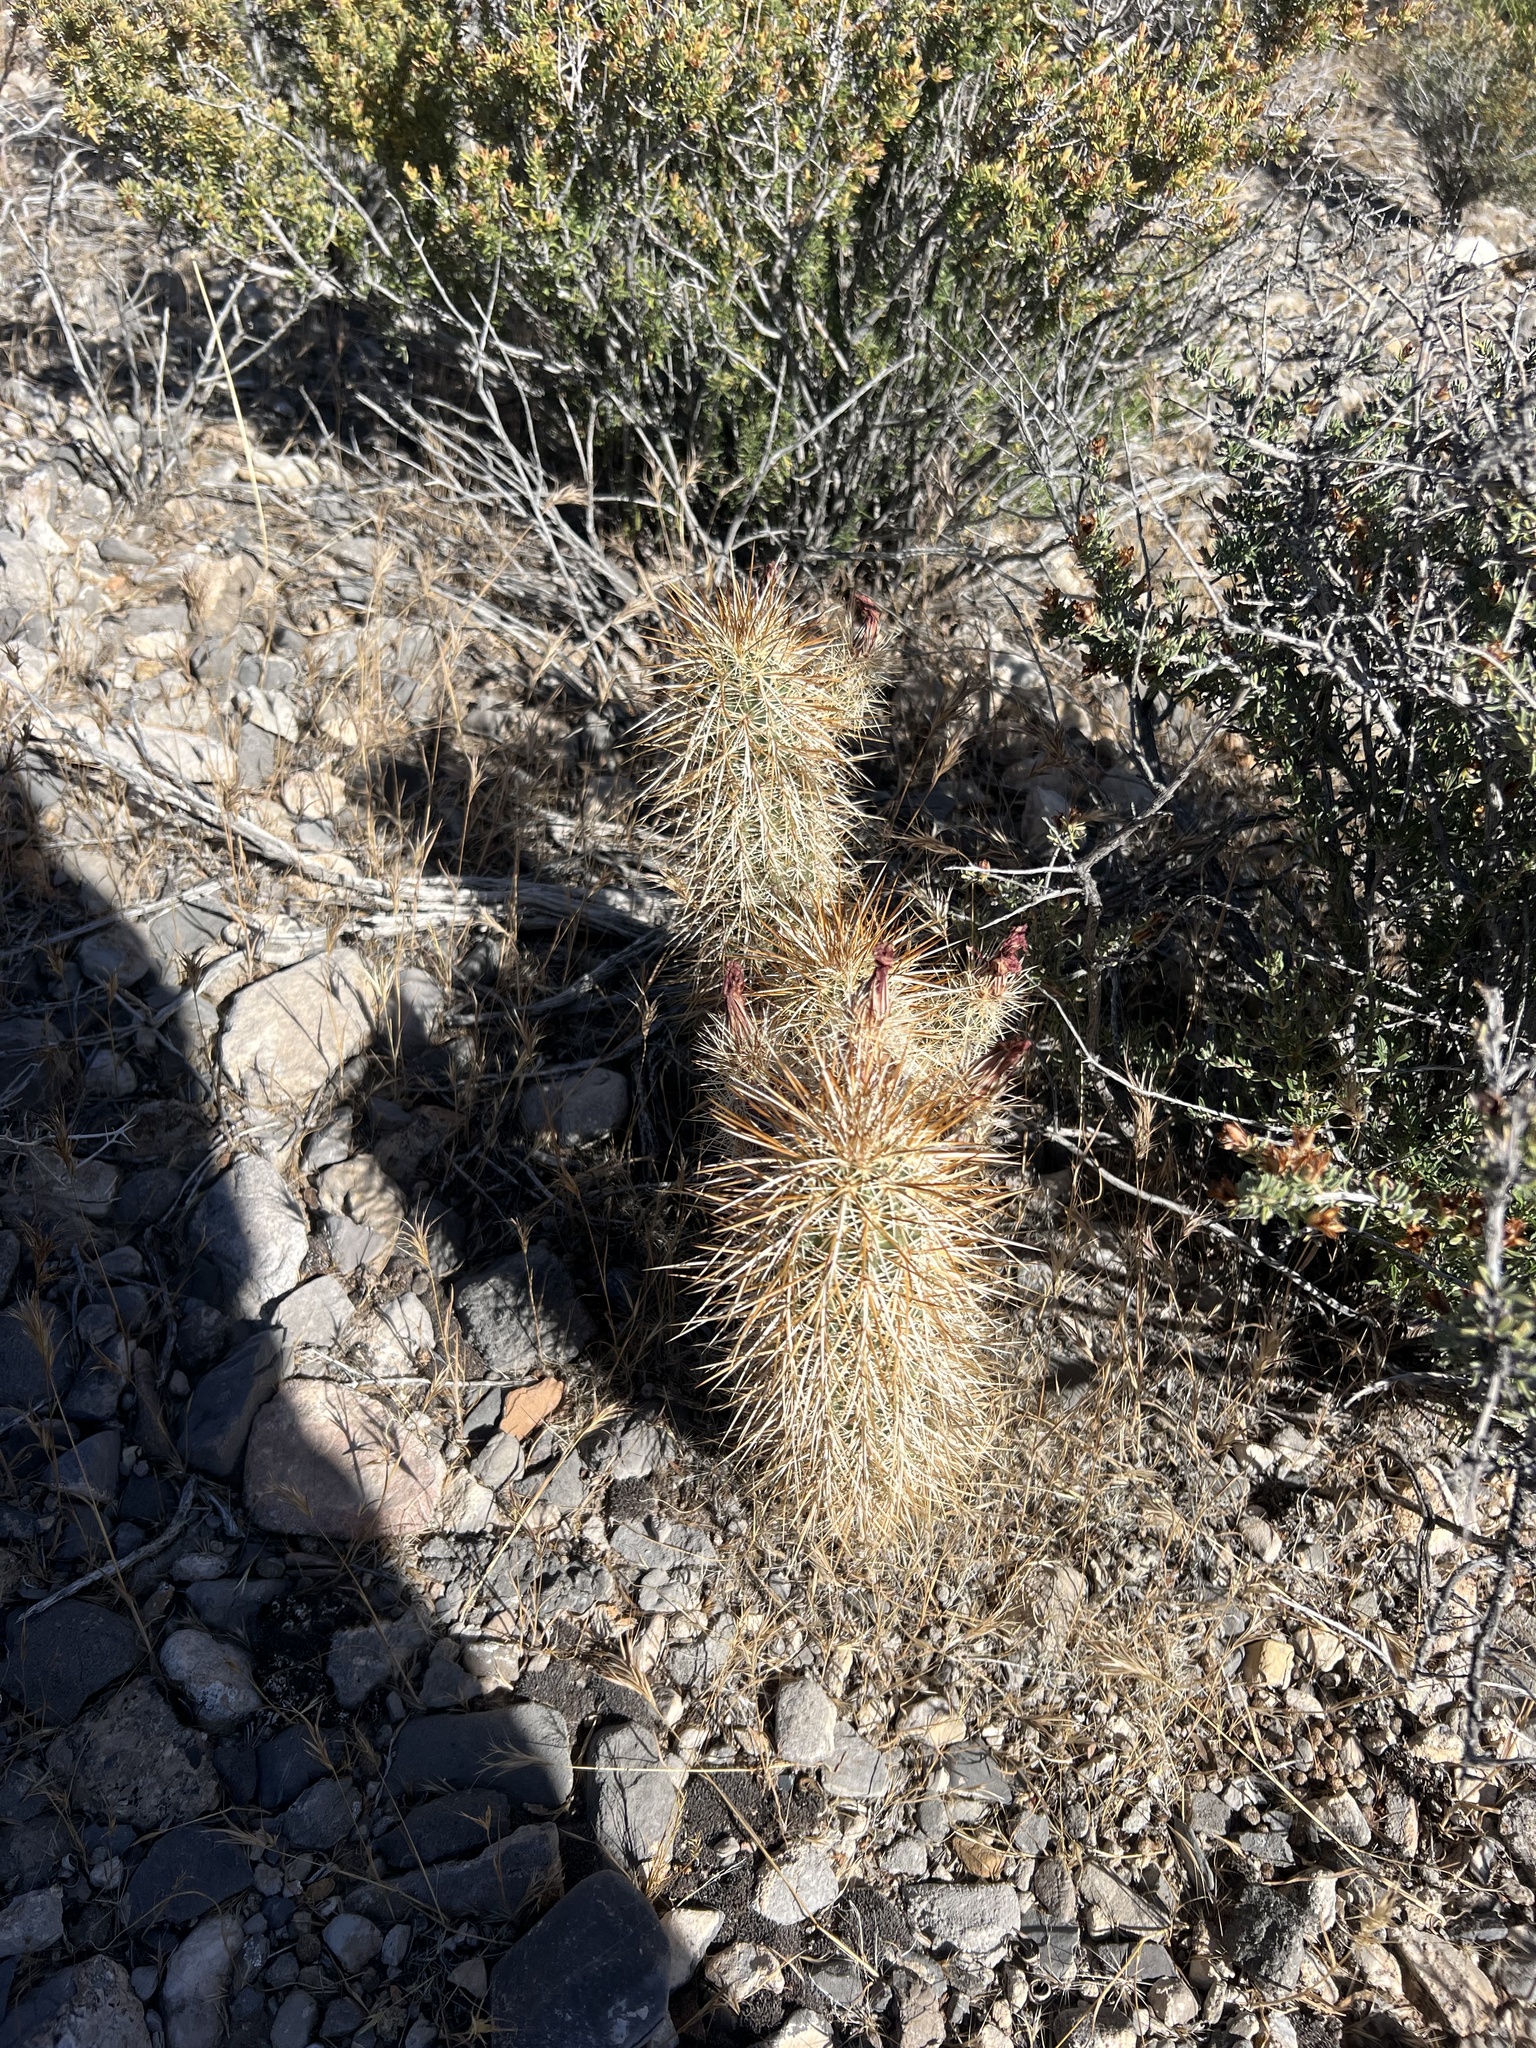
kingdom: Plantae
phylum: Tracheophyta
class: Magnoliopsida
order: Caryophyllales
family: Cactaceae
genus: Echinocereus
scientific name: Echinocereus engelmannii
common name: Engelmann's hedgehog cactus
